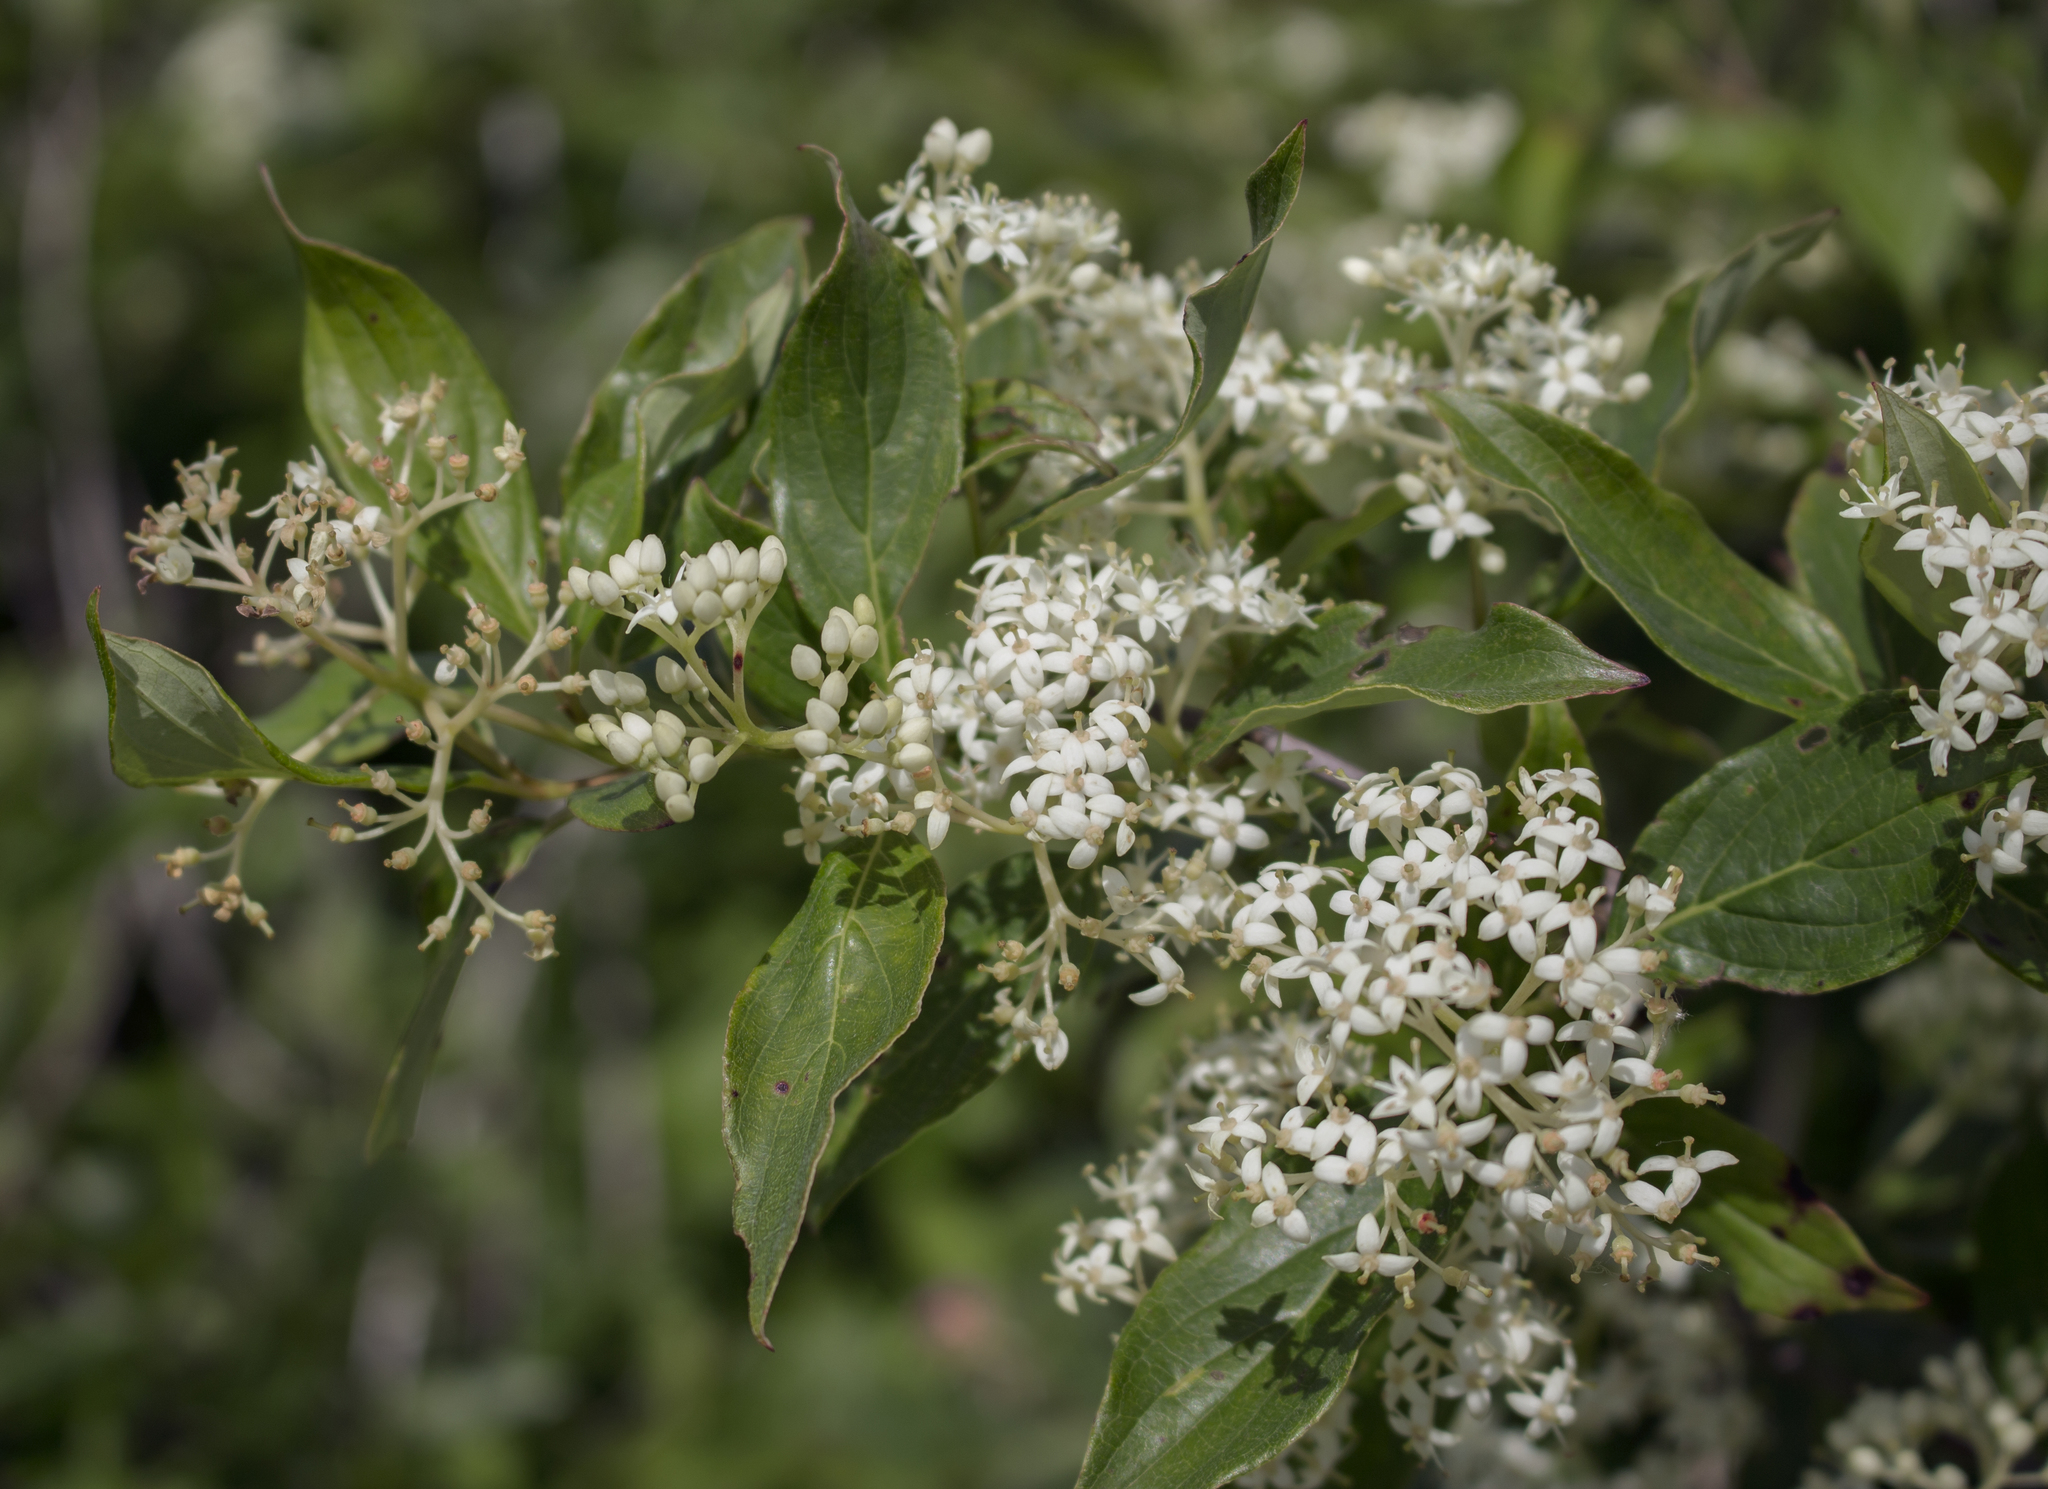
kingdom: Plantae
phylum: Tracheophyta
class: Magnoliopsida
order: Cornales
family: Cornaceae
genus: Cornus
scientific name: Cornus racemosa
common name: Panicled dogwood
